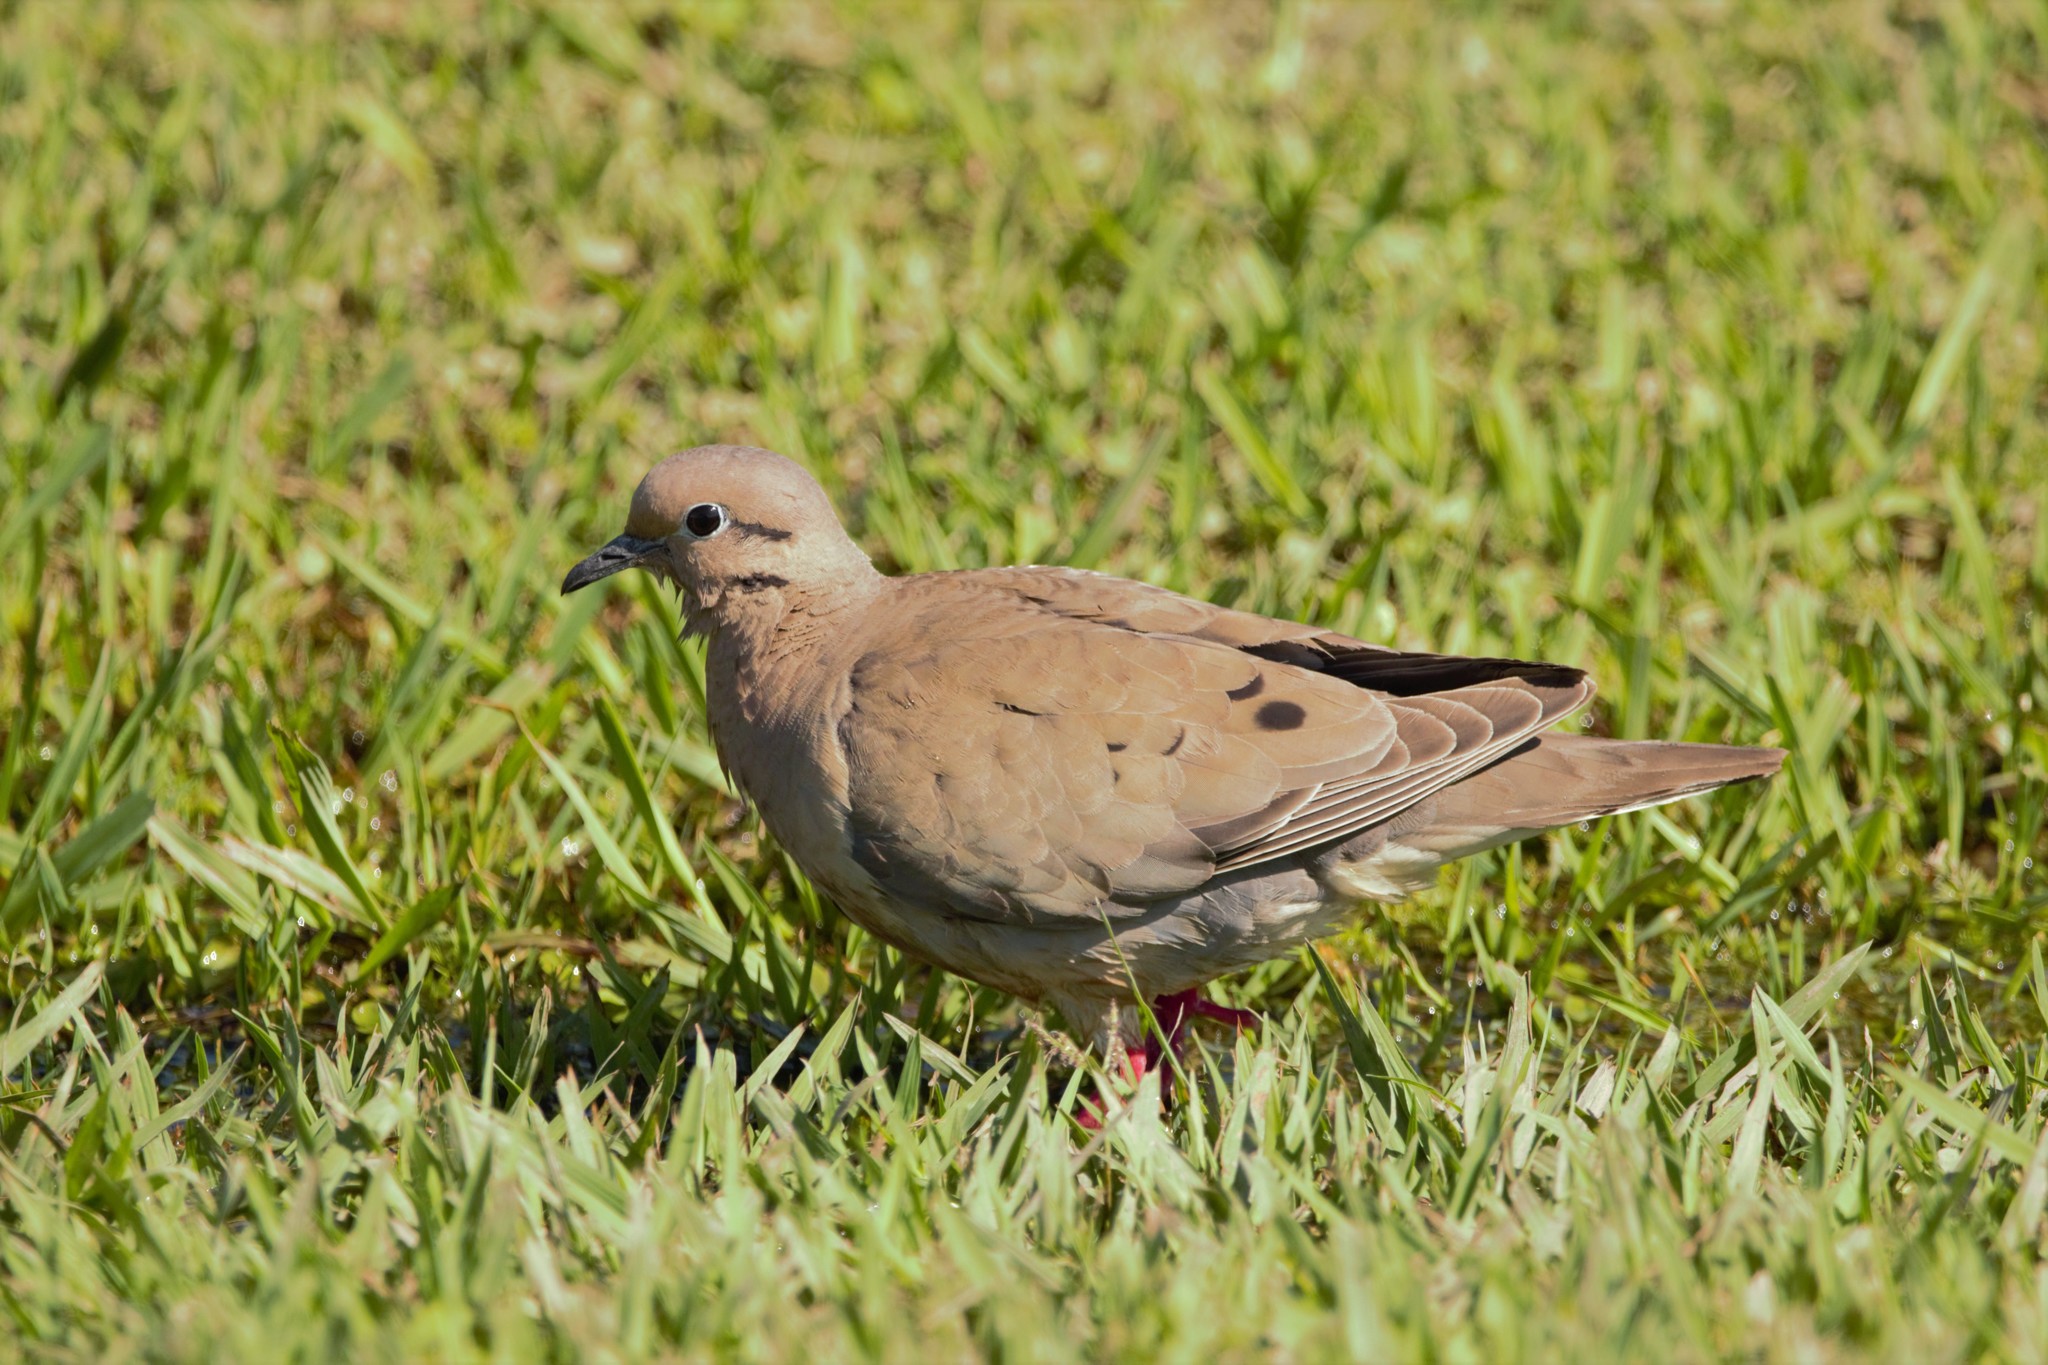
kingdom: Animalia
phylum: Chordata
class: Aves
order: Columbiformes
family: Columbidae
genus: Zenaida
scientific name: Zenaida auriculata
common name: Eared dove
